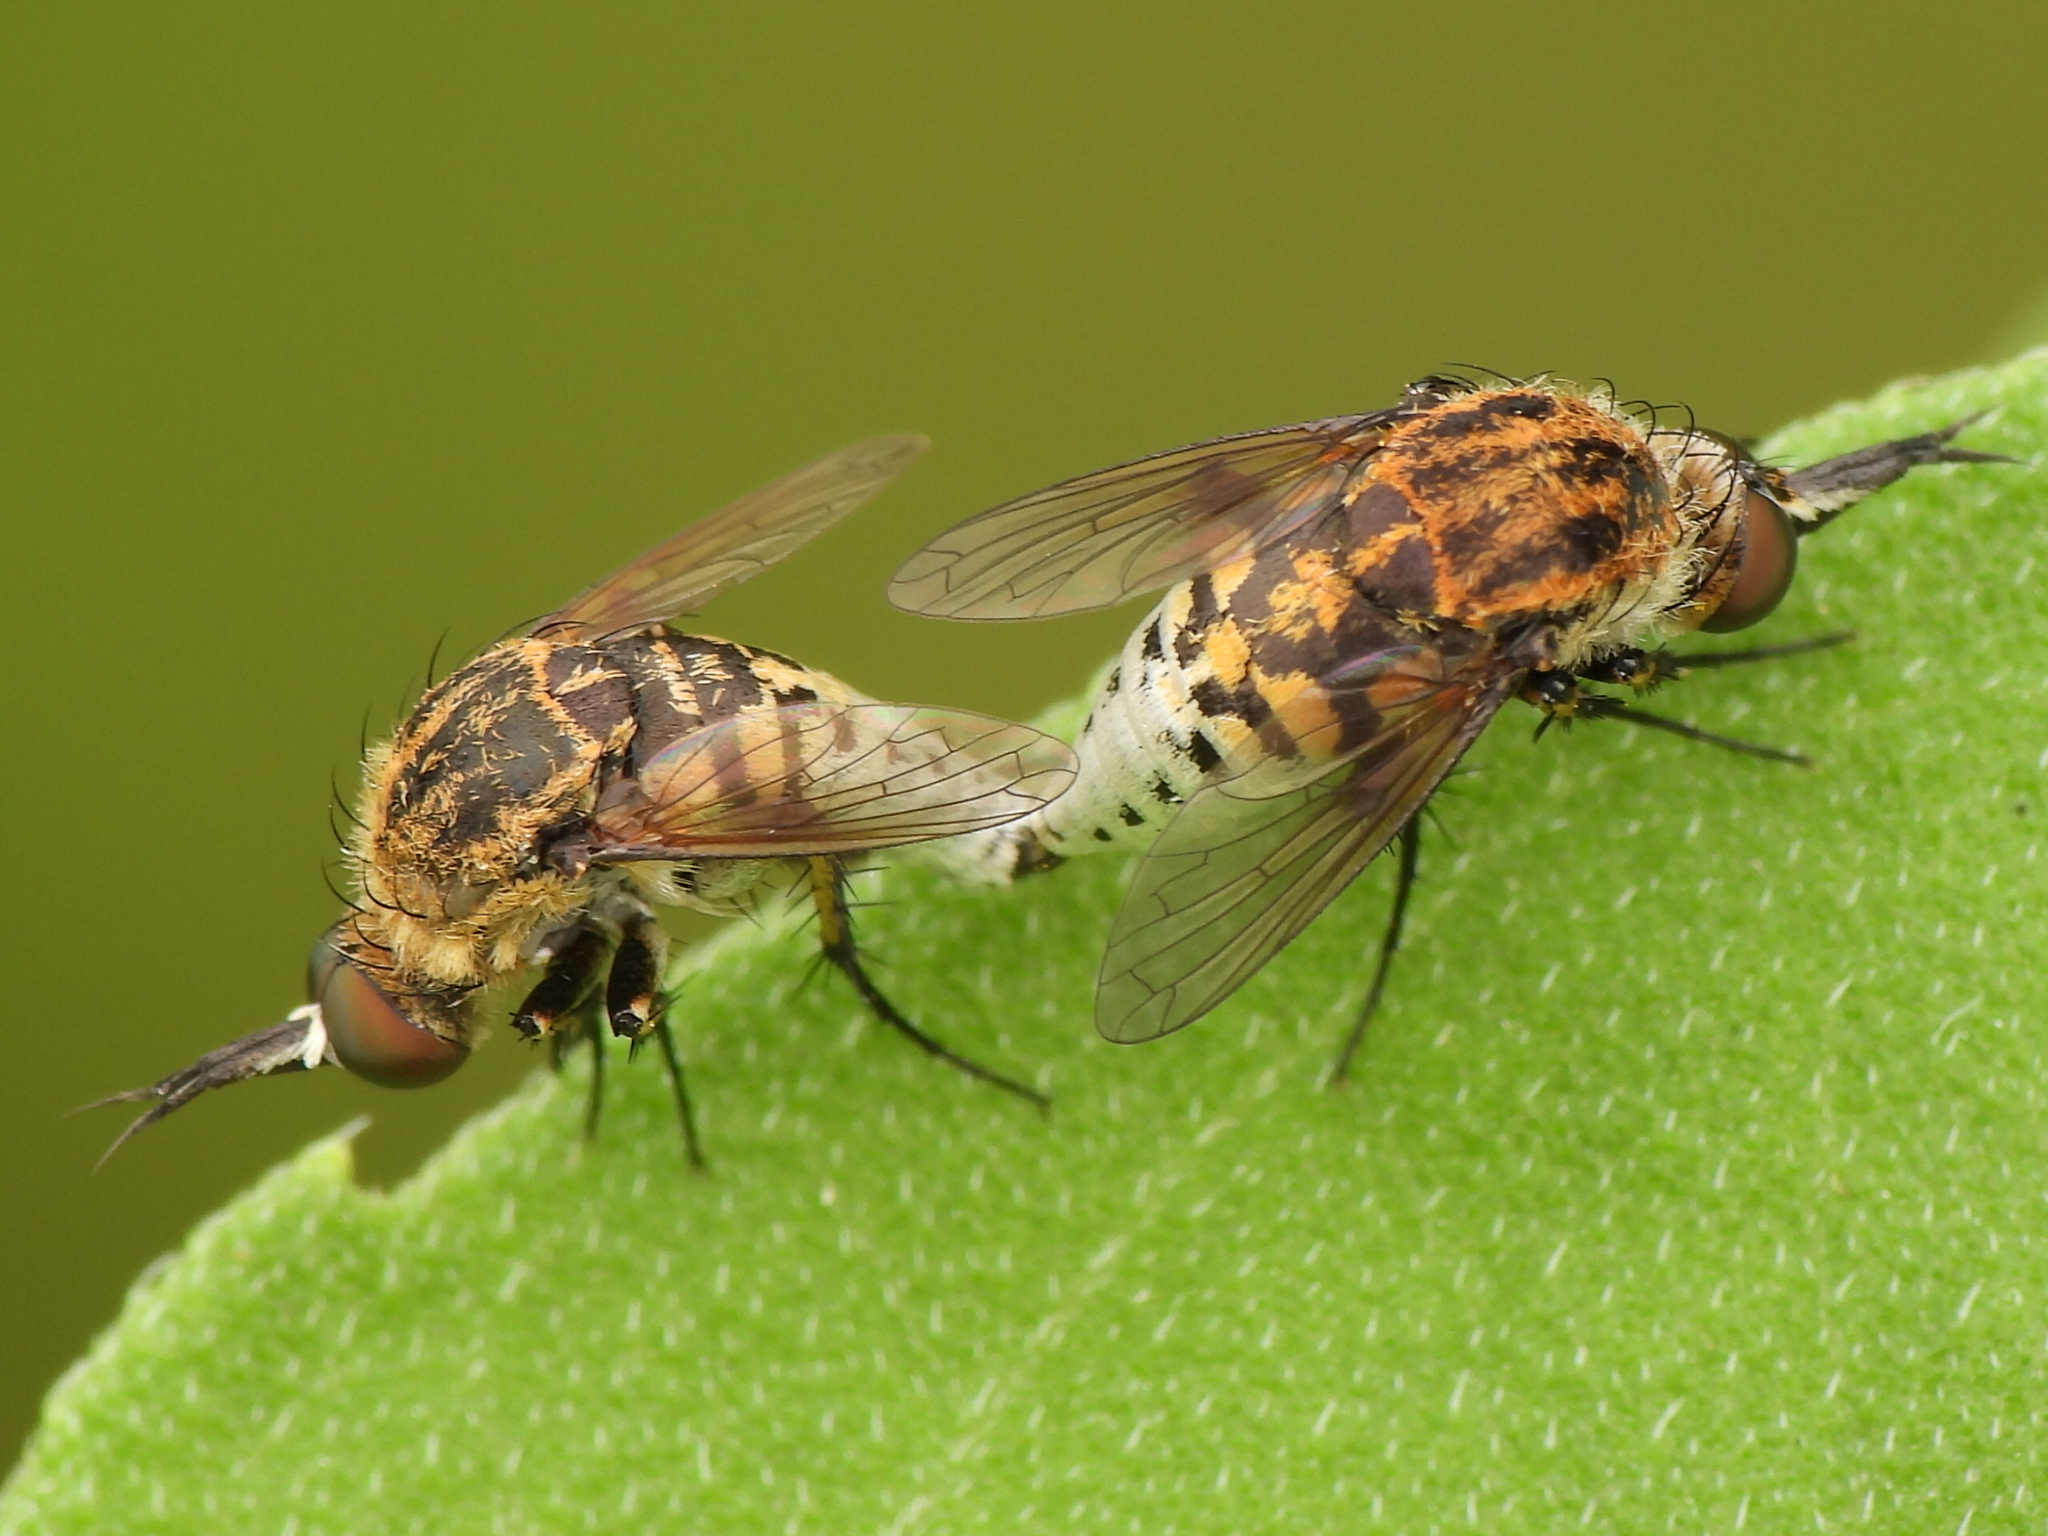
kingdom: Animalia
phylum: Arthropoda
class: Insecta
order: Diptera
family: Bombyliidae
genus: Toxophora
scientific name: Toxophora amphitea
